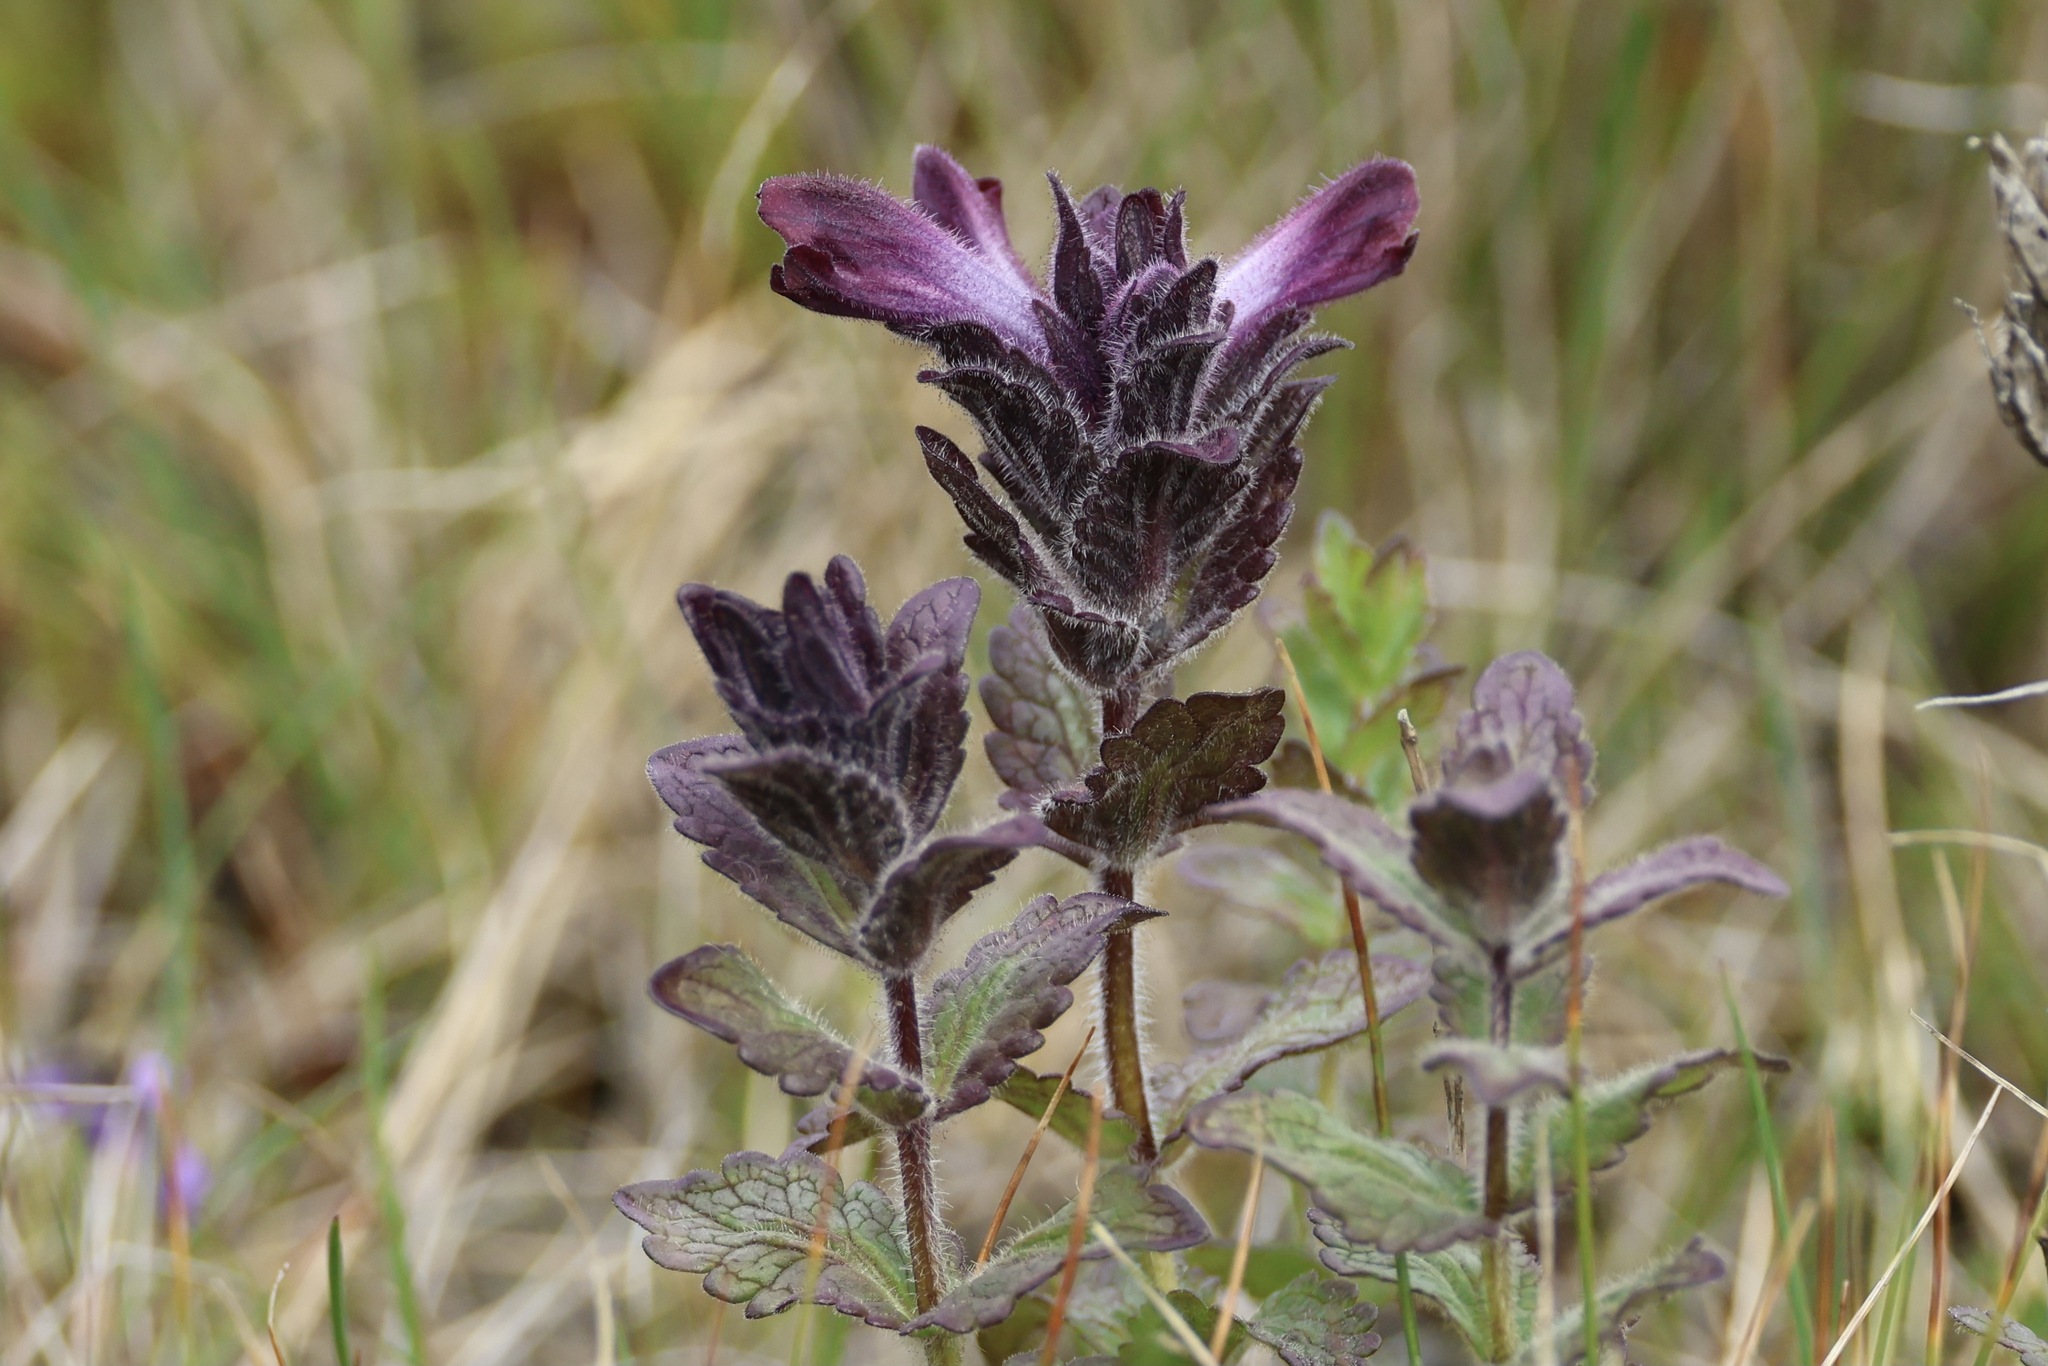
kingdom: Plantae
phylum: Tracheophyta
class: Magnoliopsida
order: Lamiales
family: Orobanchaceae
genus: Bartsia
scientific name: Bartsia alpina
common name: Alpine bartsia
